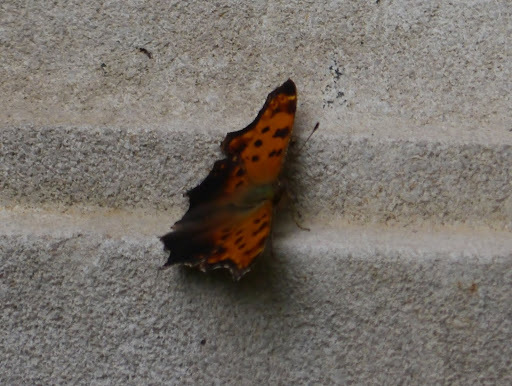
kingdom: Animalia
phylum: Arthropoda
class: Insecta
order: Lepidoptera
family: Nymphalidae
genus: Polygonia
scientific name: Polygonia comma
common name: Eastern comma
